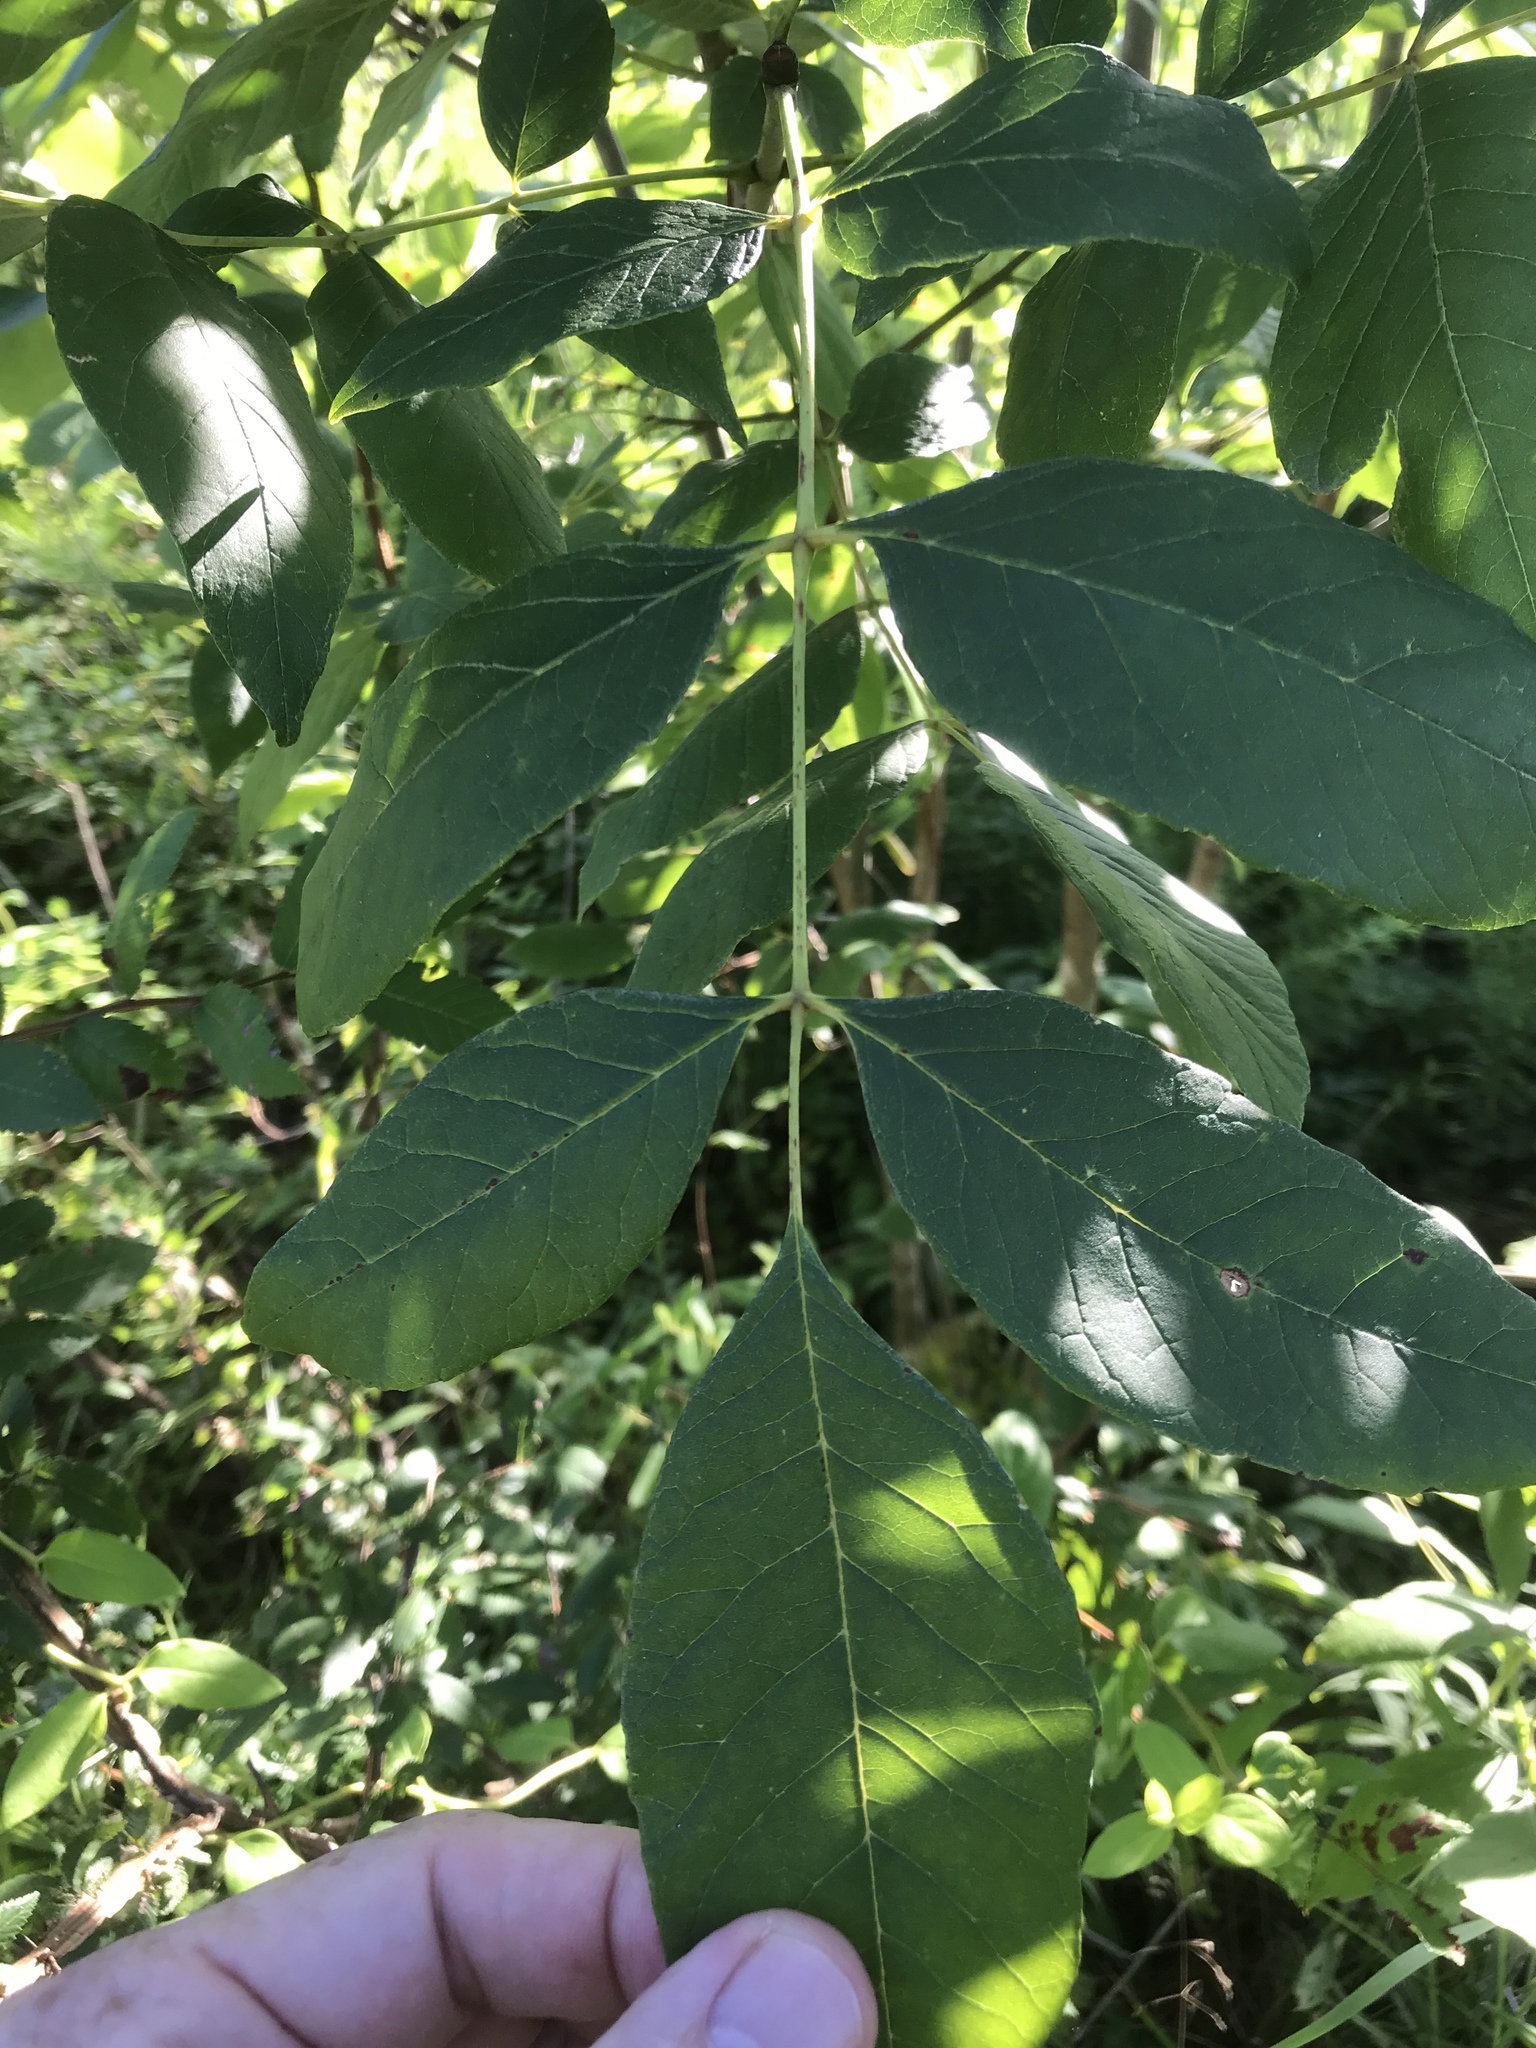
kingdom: Plantae
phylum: Tracheophyta
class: Magnoliopsida
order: Lamiales
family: Oleaceae
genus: Fraxinus
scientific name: Fraxinus americana
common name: White ash
